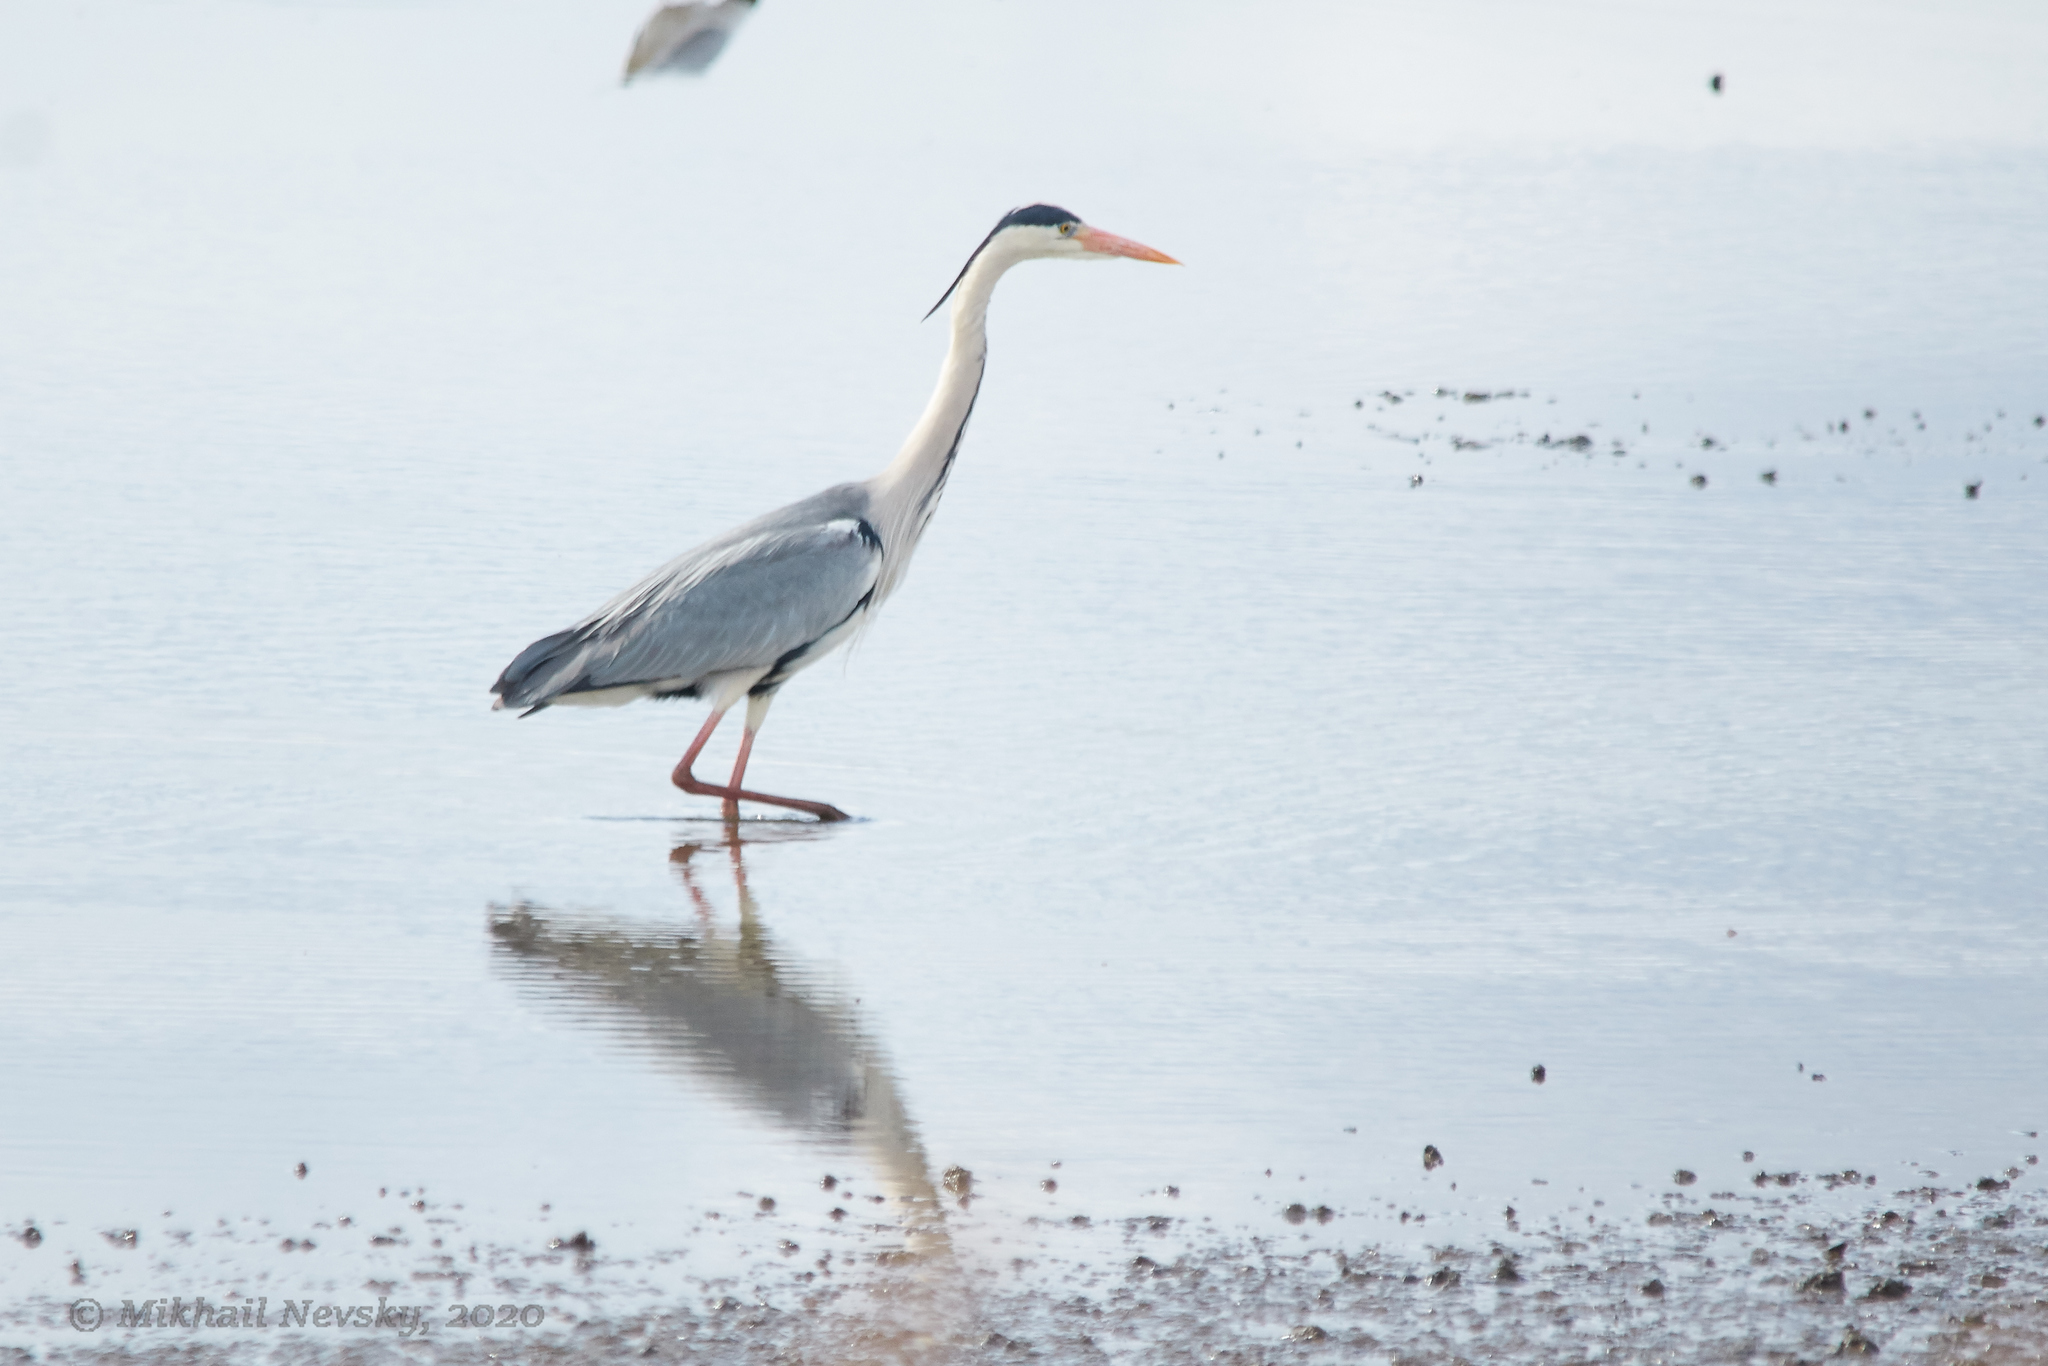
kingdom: Animalia
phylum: Chordata
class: Aves
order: Pelecaniformes
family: Ardeidae
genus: Ardea
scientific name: Ardea cinerea
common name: Grey heron
